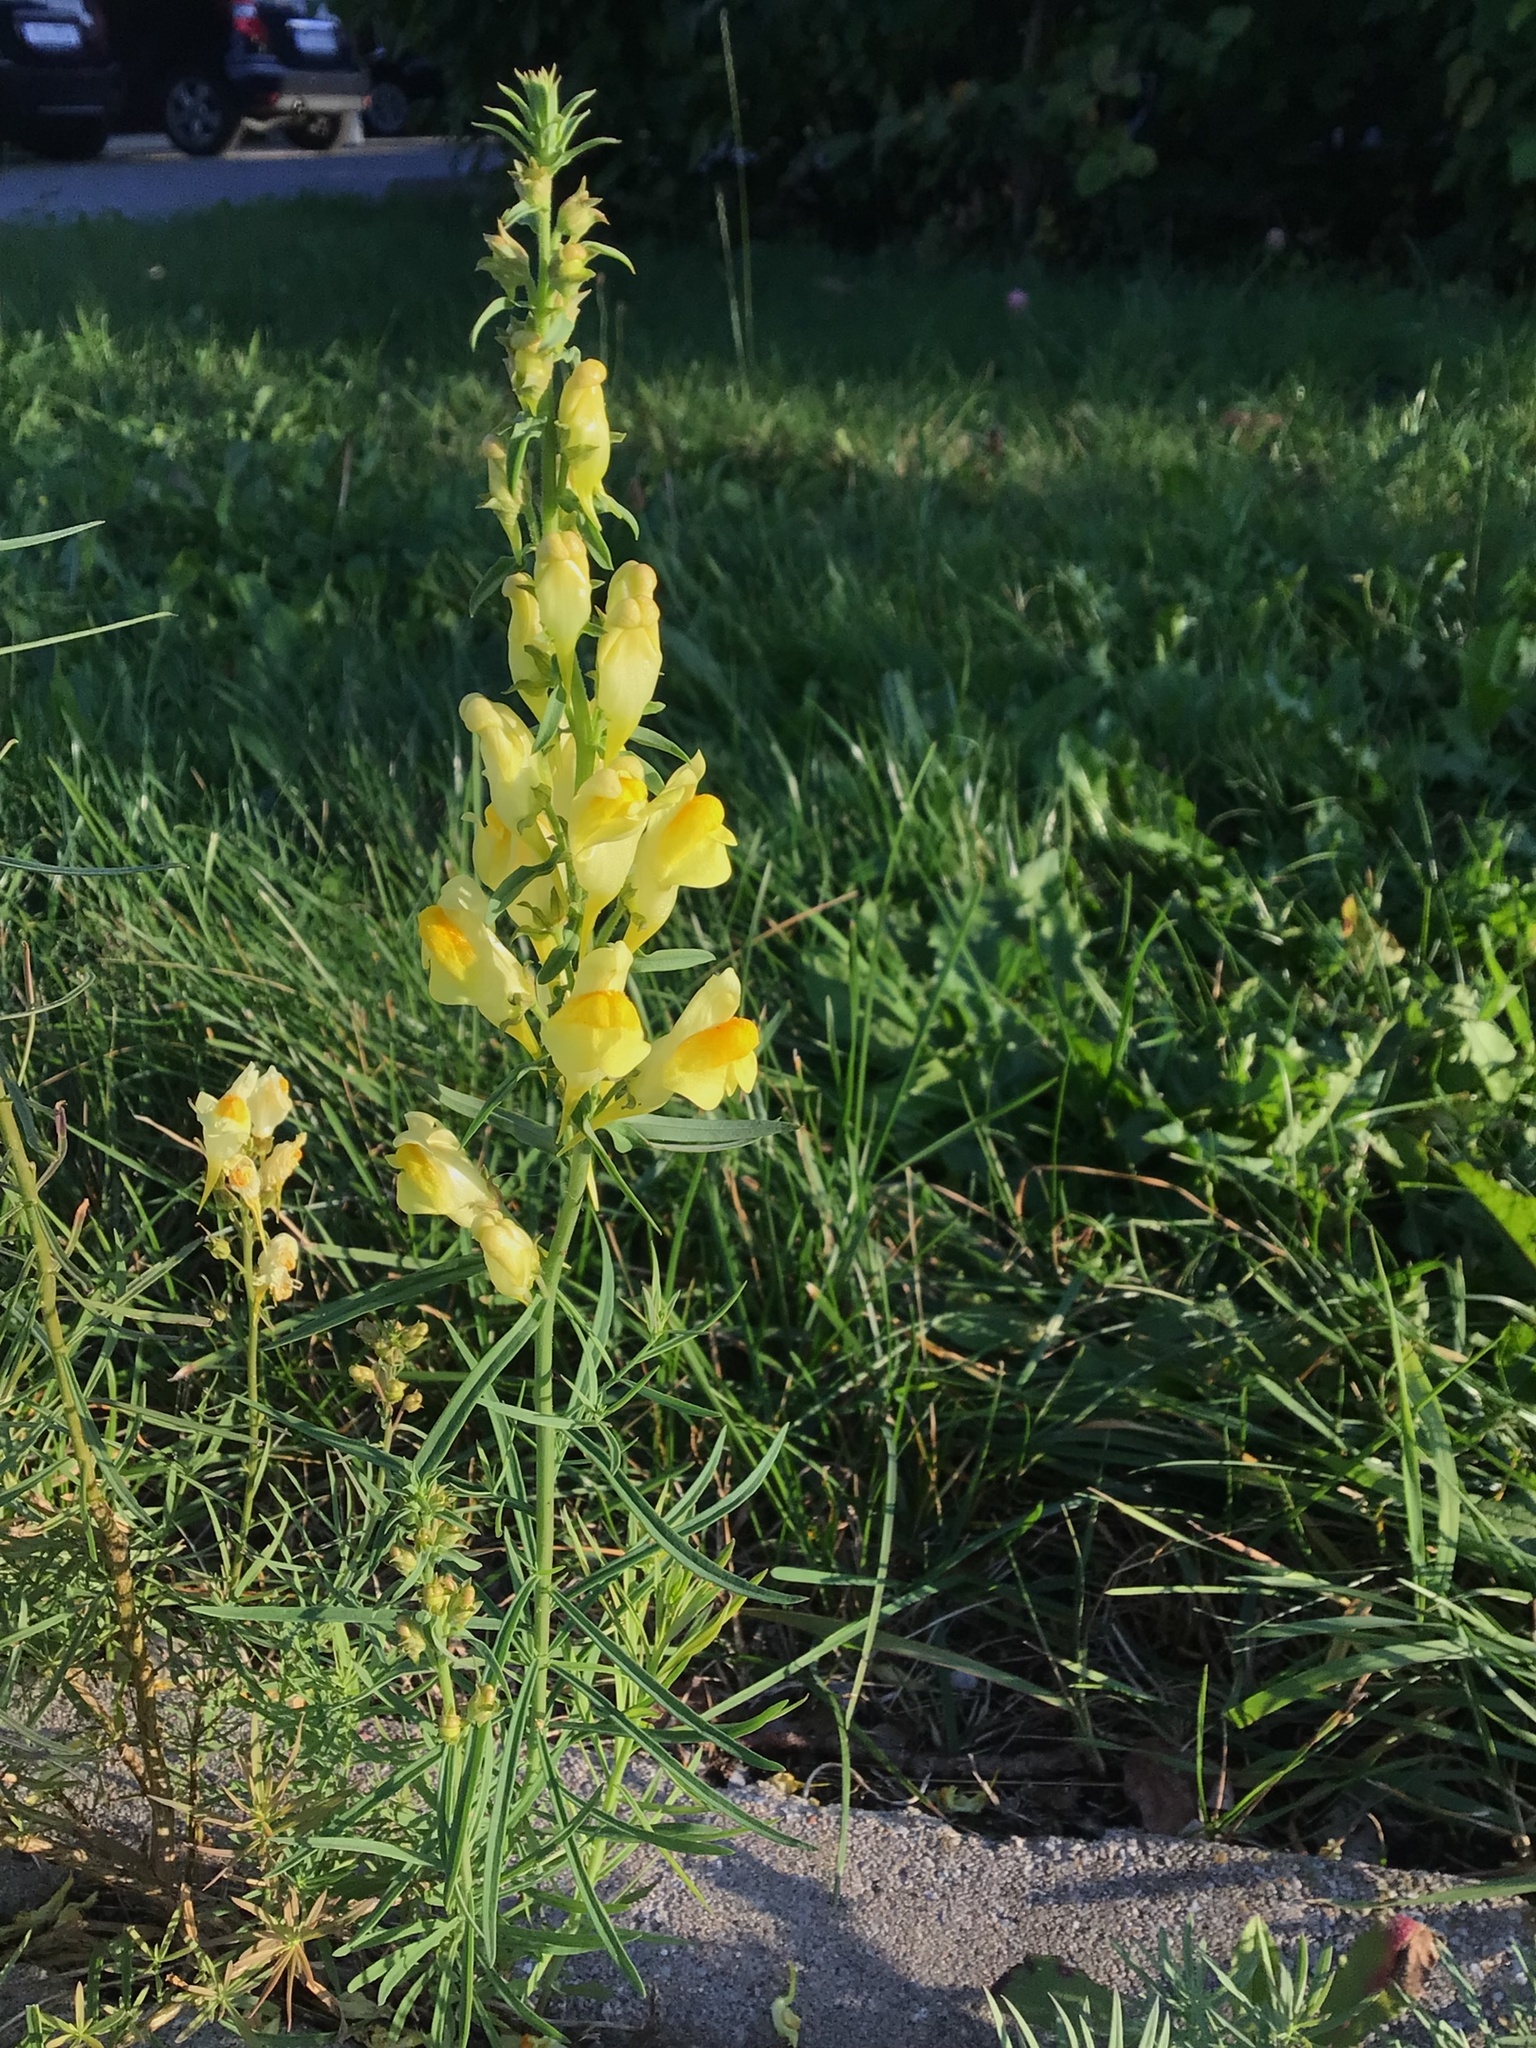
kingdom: Plantae
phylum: Tracheophyta
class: Magnoliopsida
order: Lamiales
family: Plantaginaceae
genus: Linaria
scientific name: Linaria vulgaris
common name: Butter and eggs
